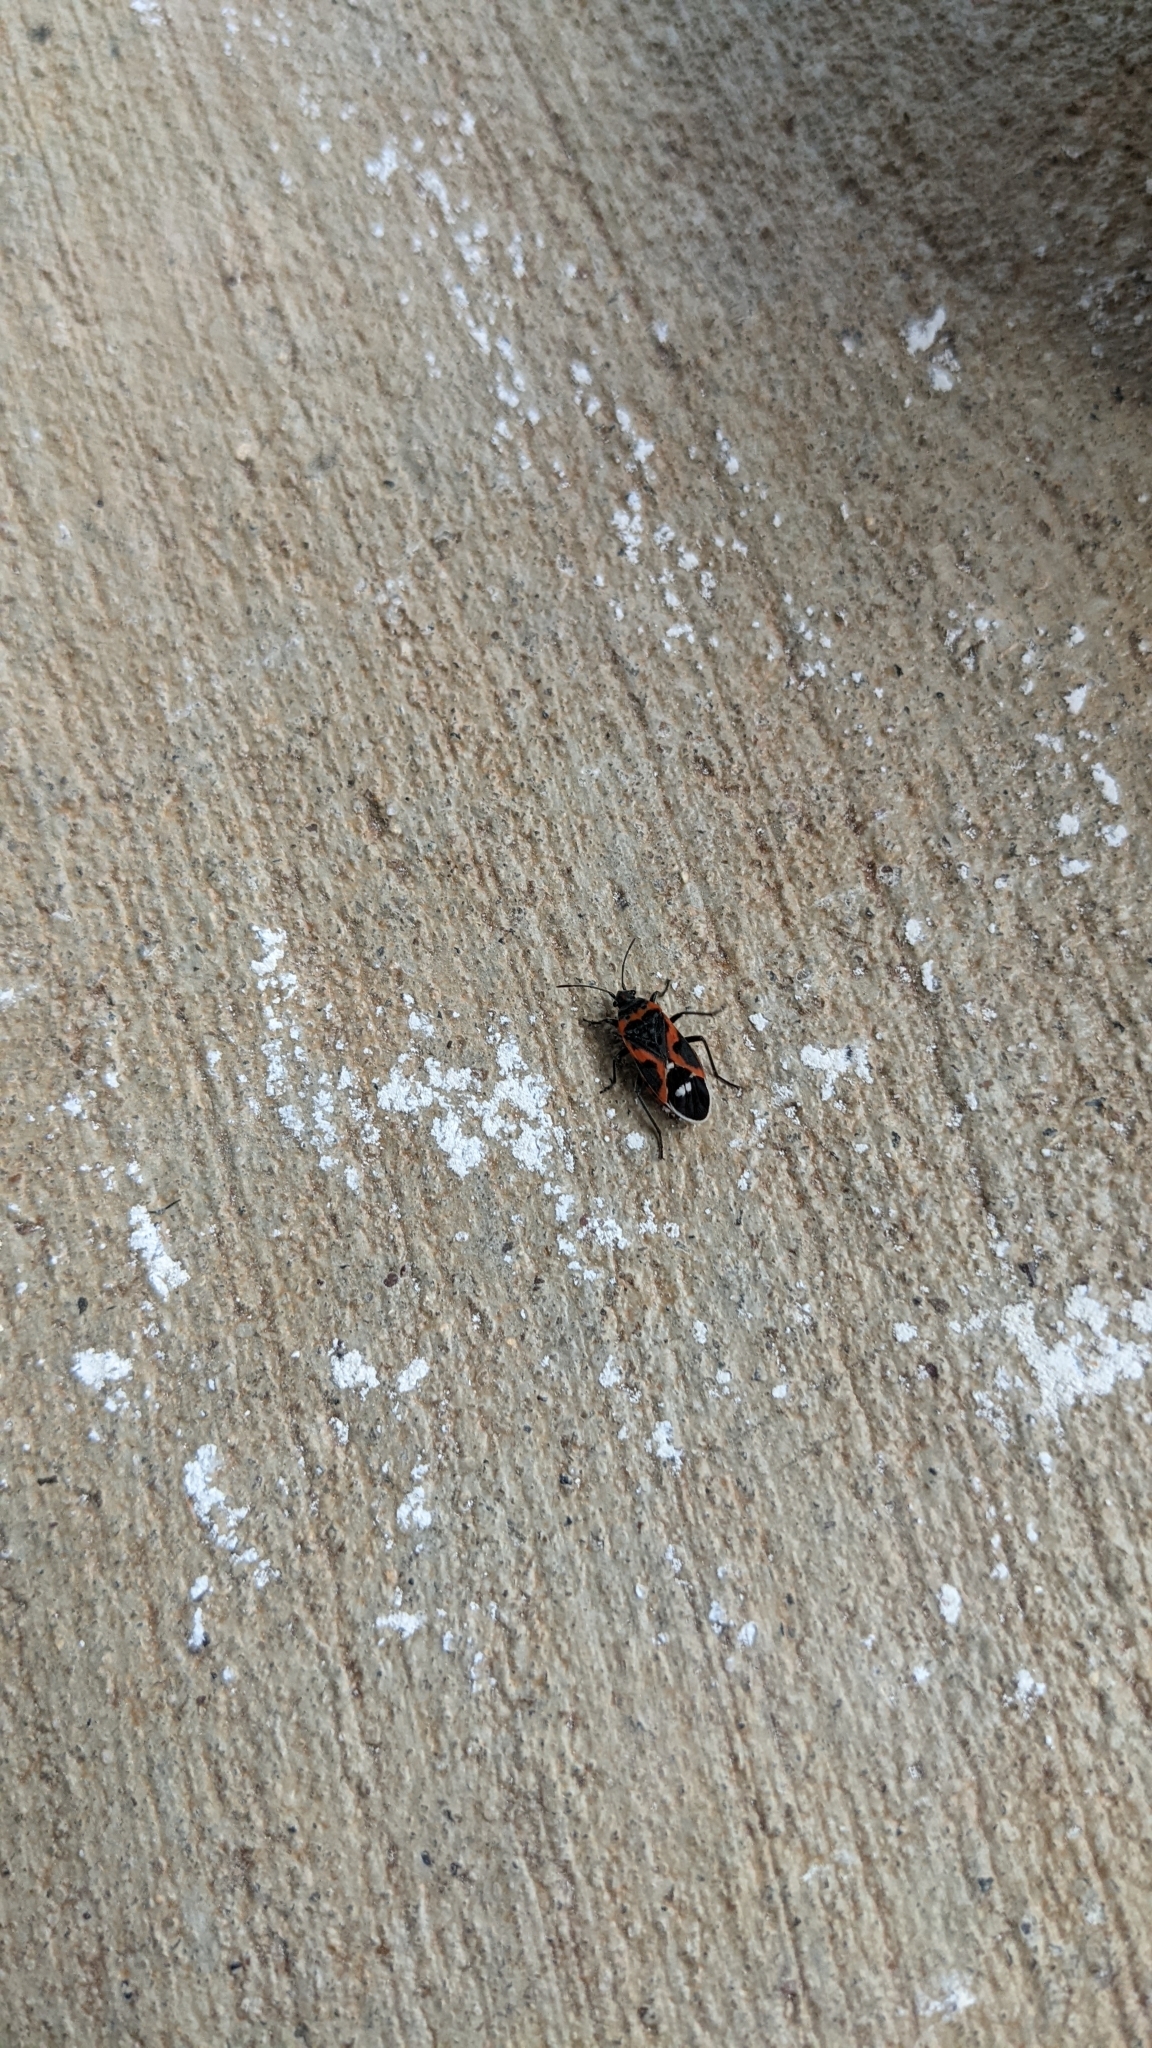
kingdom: Animalia
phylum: Arthropoda
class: Insecta
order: Hemiptera
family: Lygaeidae
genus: Lygaeus
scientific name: Lygaeus kalmii
